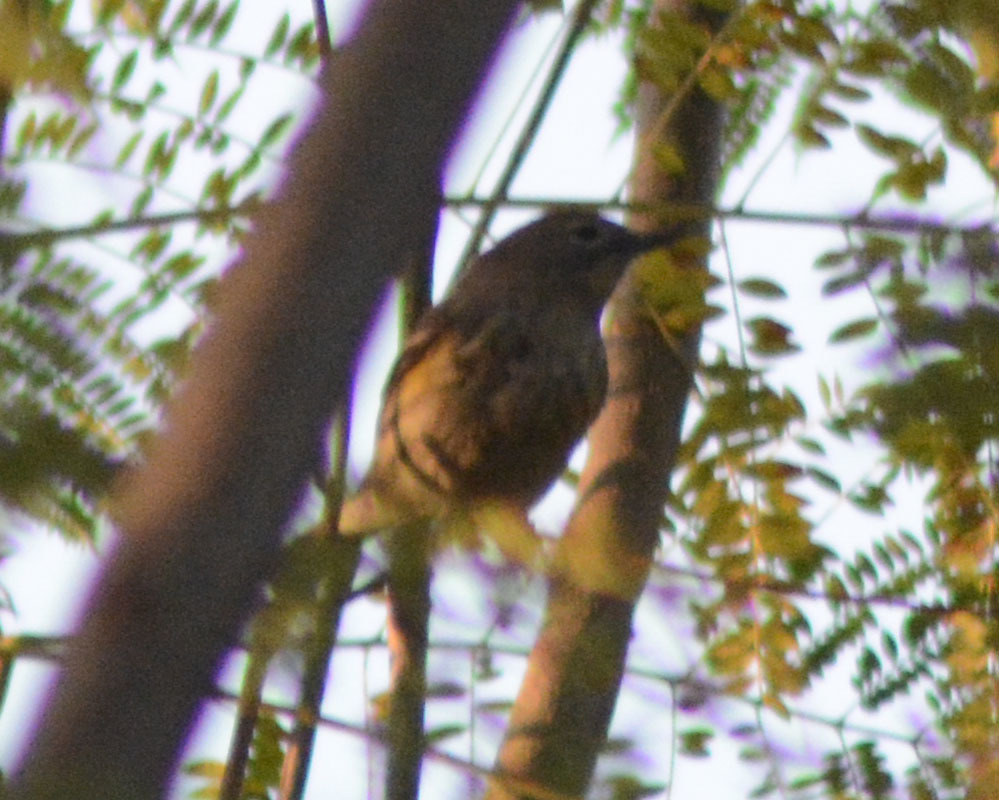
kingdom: Animalia
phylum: Chordata
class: Aves
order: Passeriformes
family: Parulidae
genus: Setophaga
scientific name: Setophaga coronata
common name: Myrtle warbler
